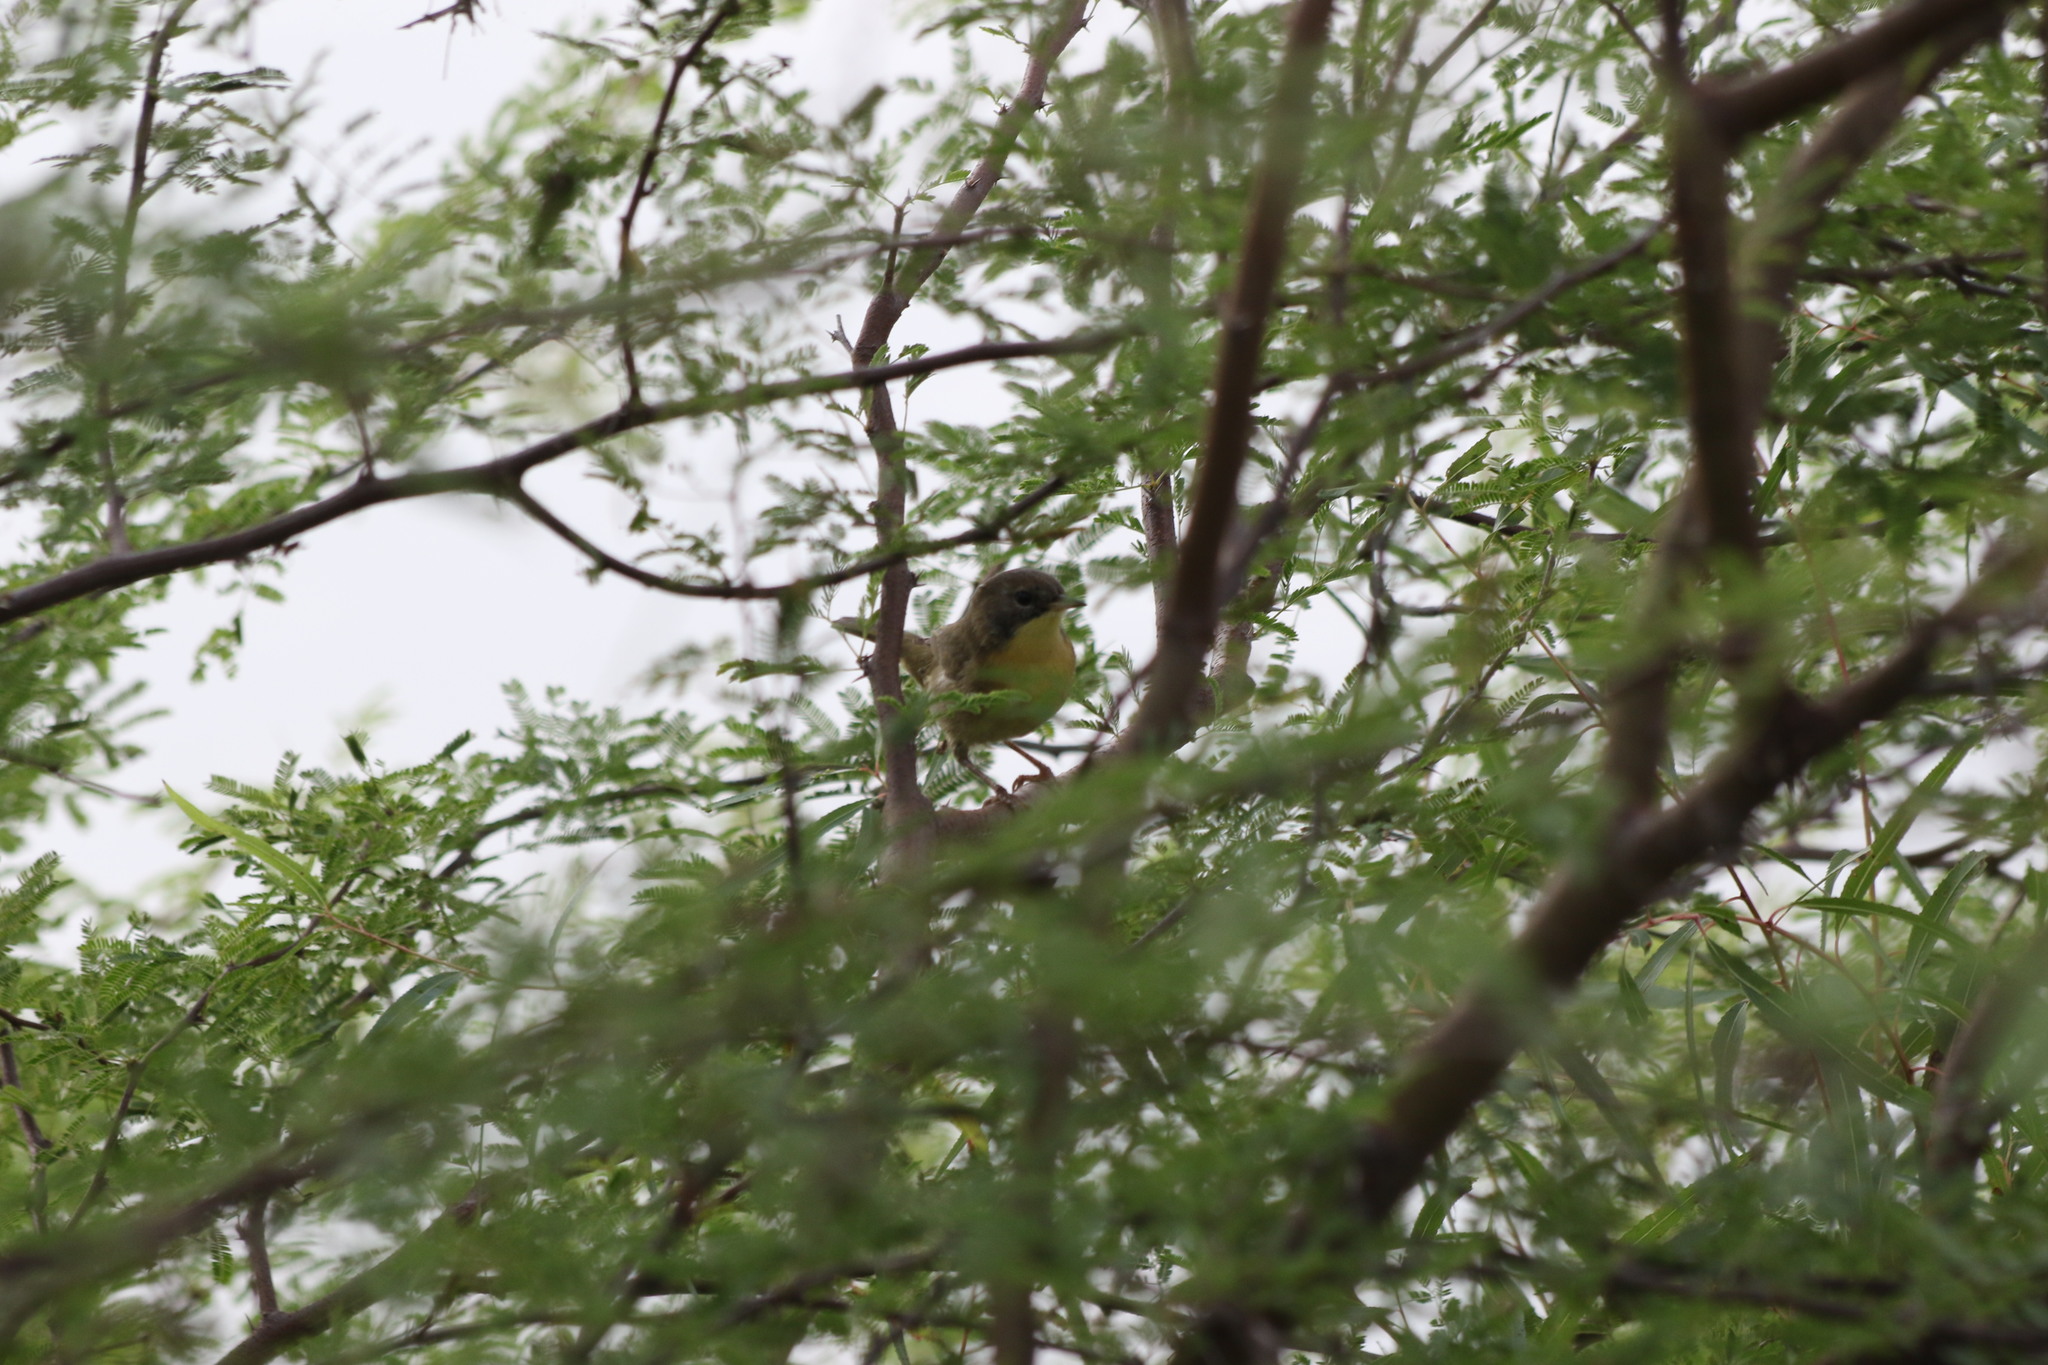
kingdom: Animalia
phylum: Chordata
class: Aves
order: Passeriformes
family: Parulidae
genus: Geothlypis
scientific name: Geothlypis trichas
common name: Common yellowthroat
